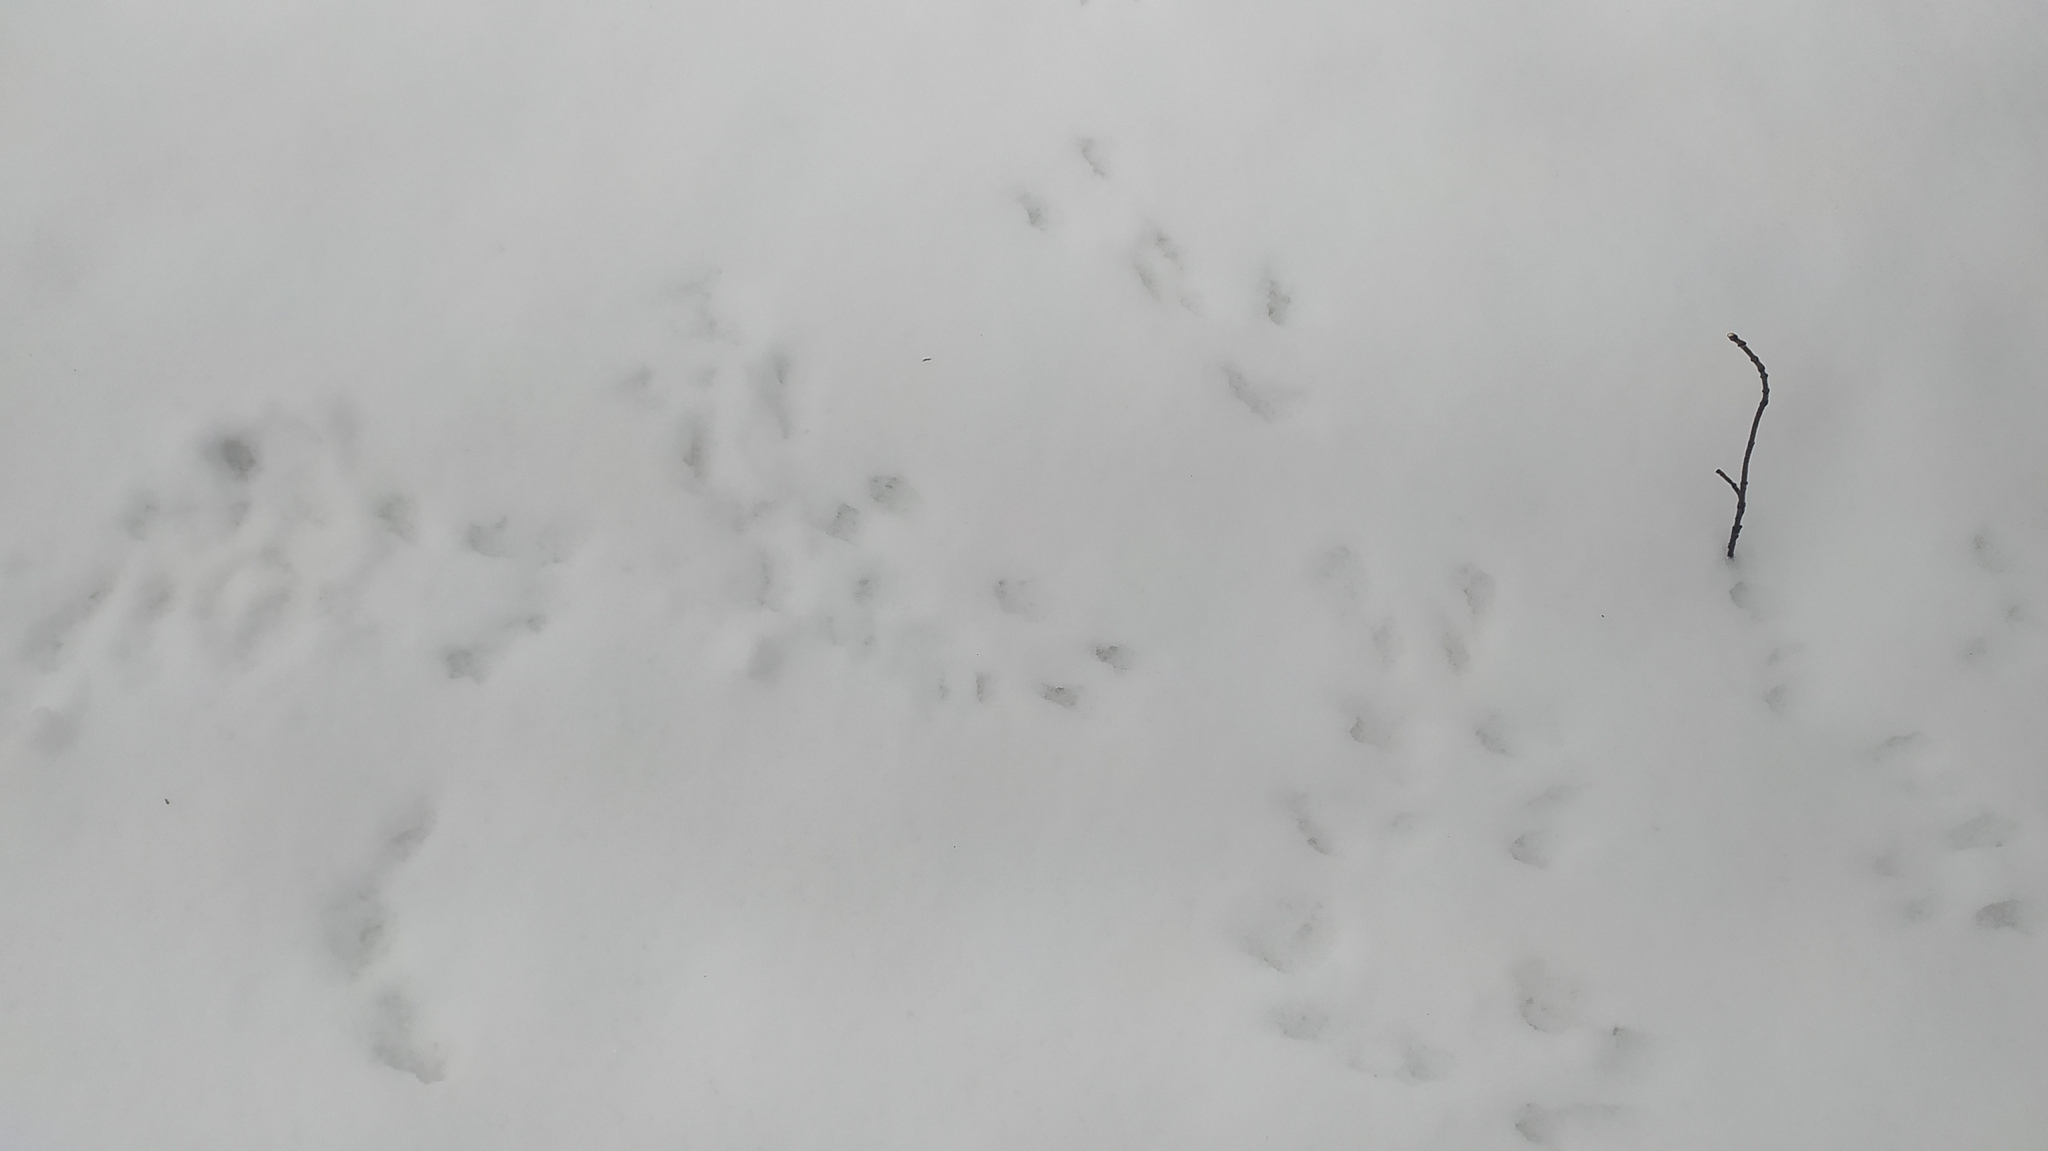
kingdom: Animalia
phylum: Chordata
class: Mammalia
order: Rodentia
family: Sciuridae
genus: Sciurus
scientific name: Sciurus vulgaris
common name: Eurasian red squirrel
